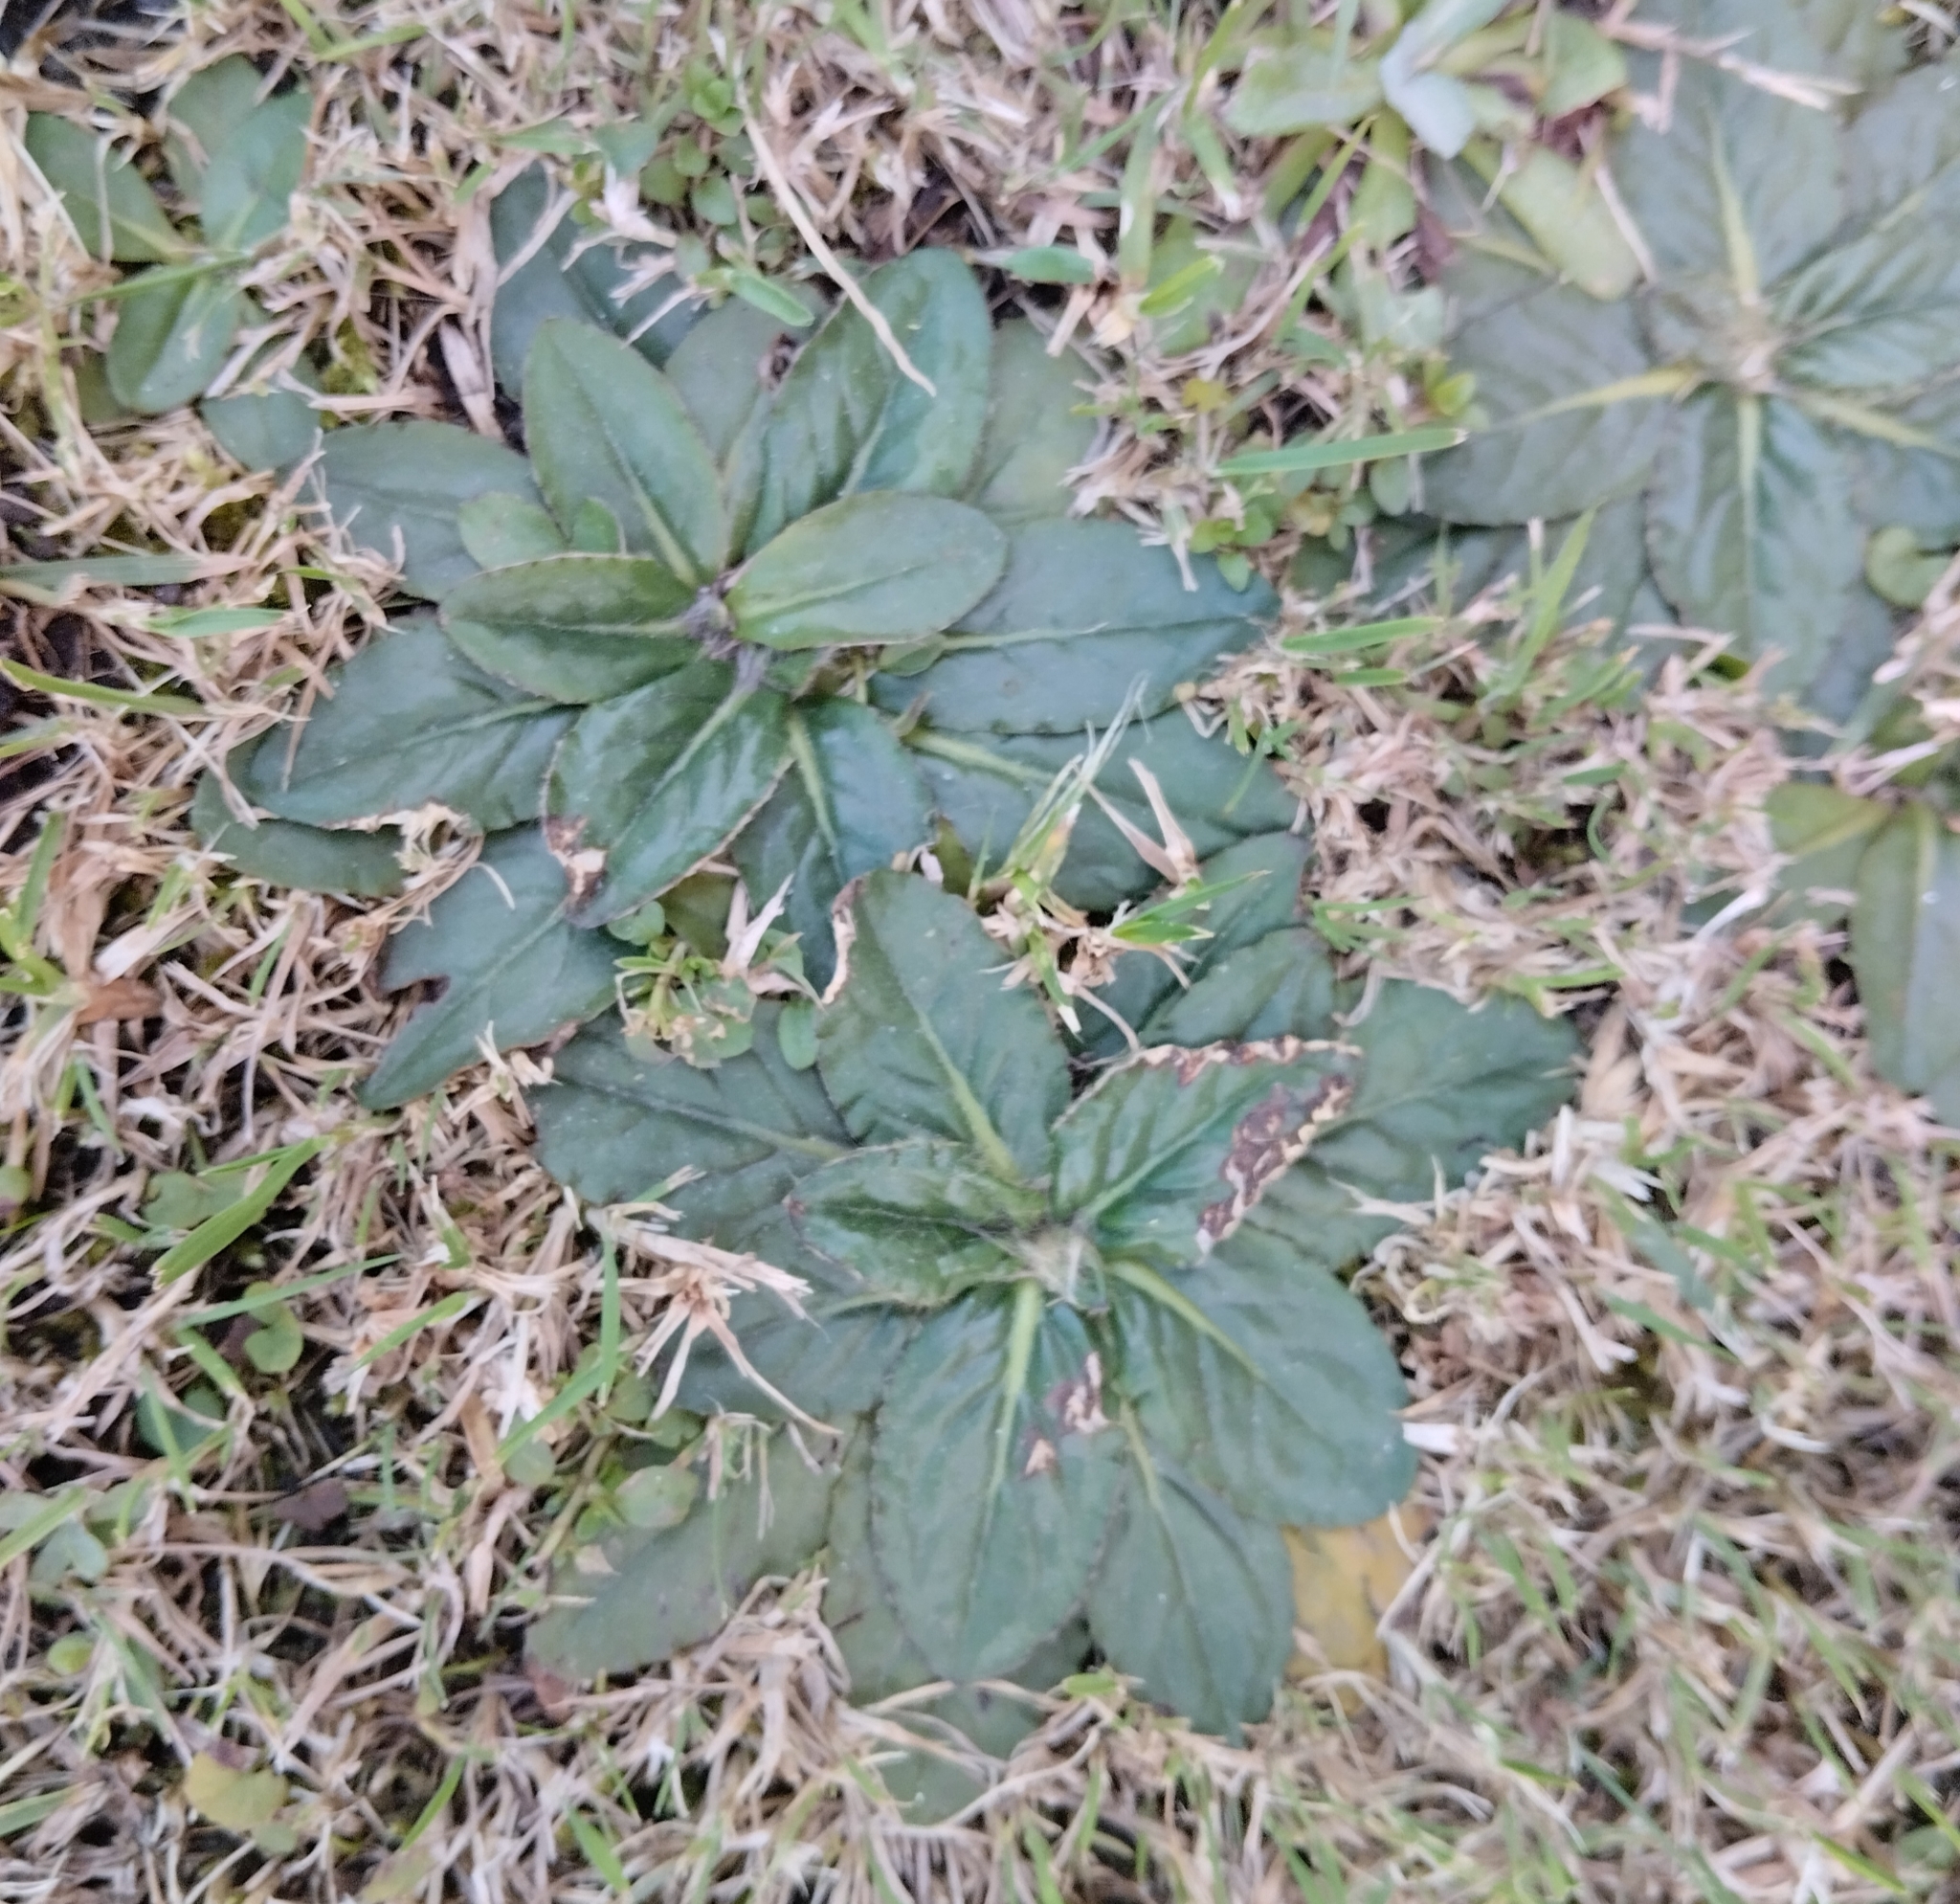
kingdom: Plantae
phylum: Tracheophyta
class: Magnoliopsida
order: Asterales
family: Asteraceae
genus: Chaptalia
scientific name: Chaptalia exscapa
